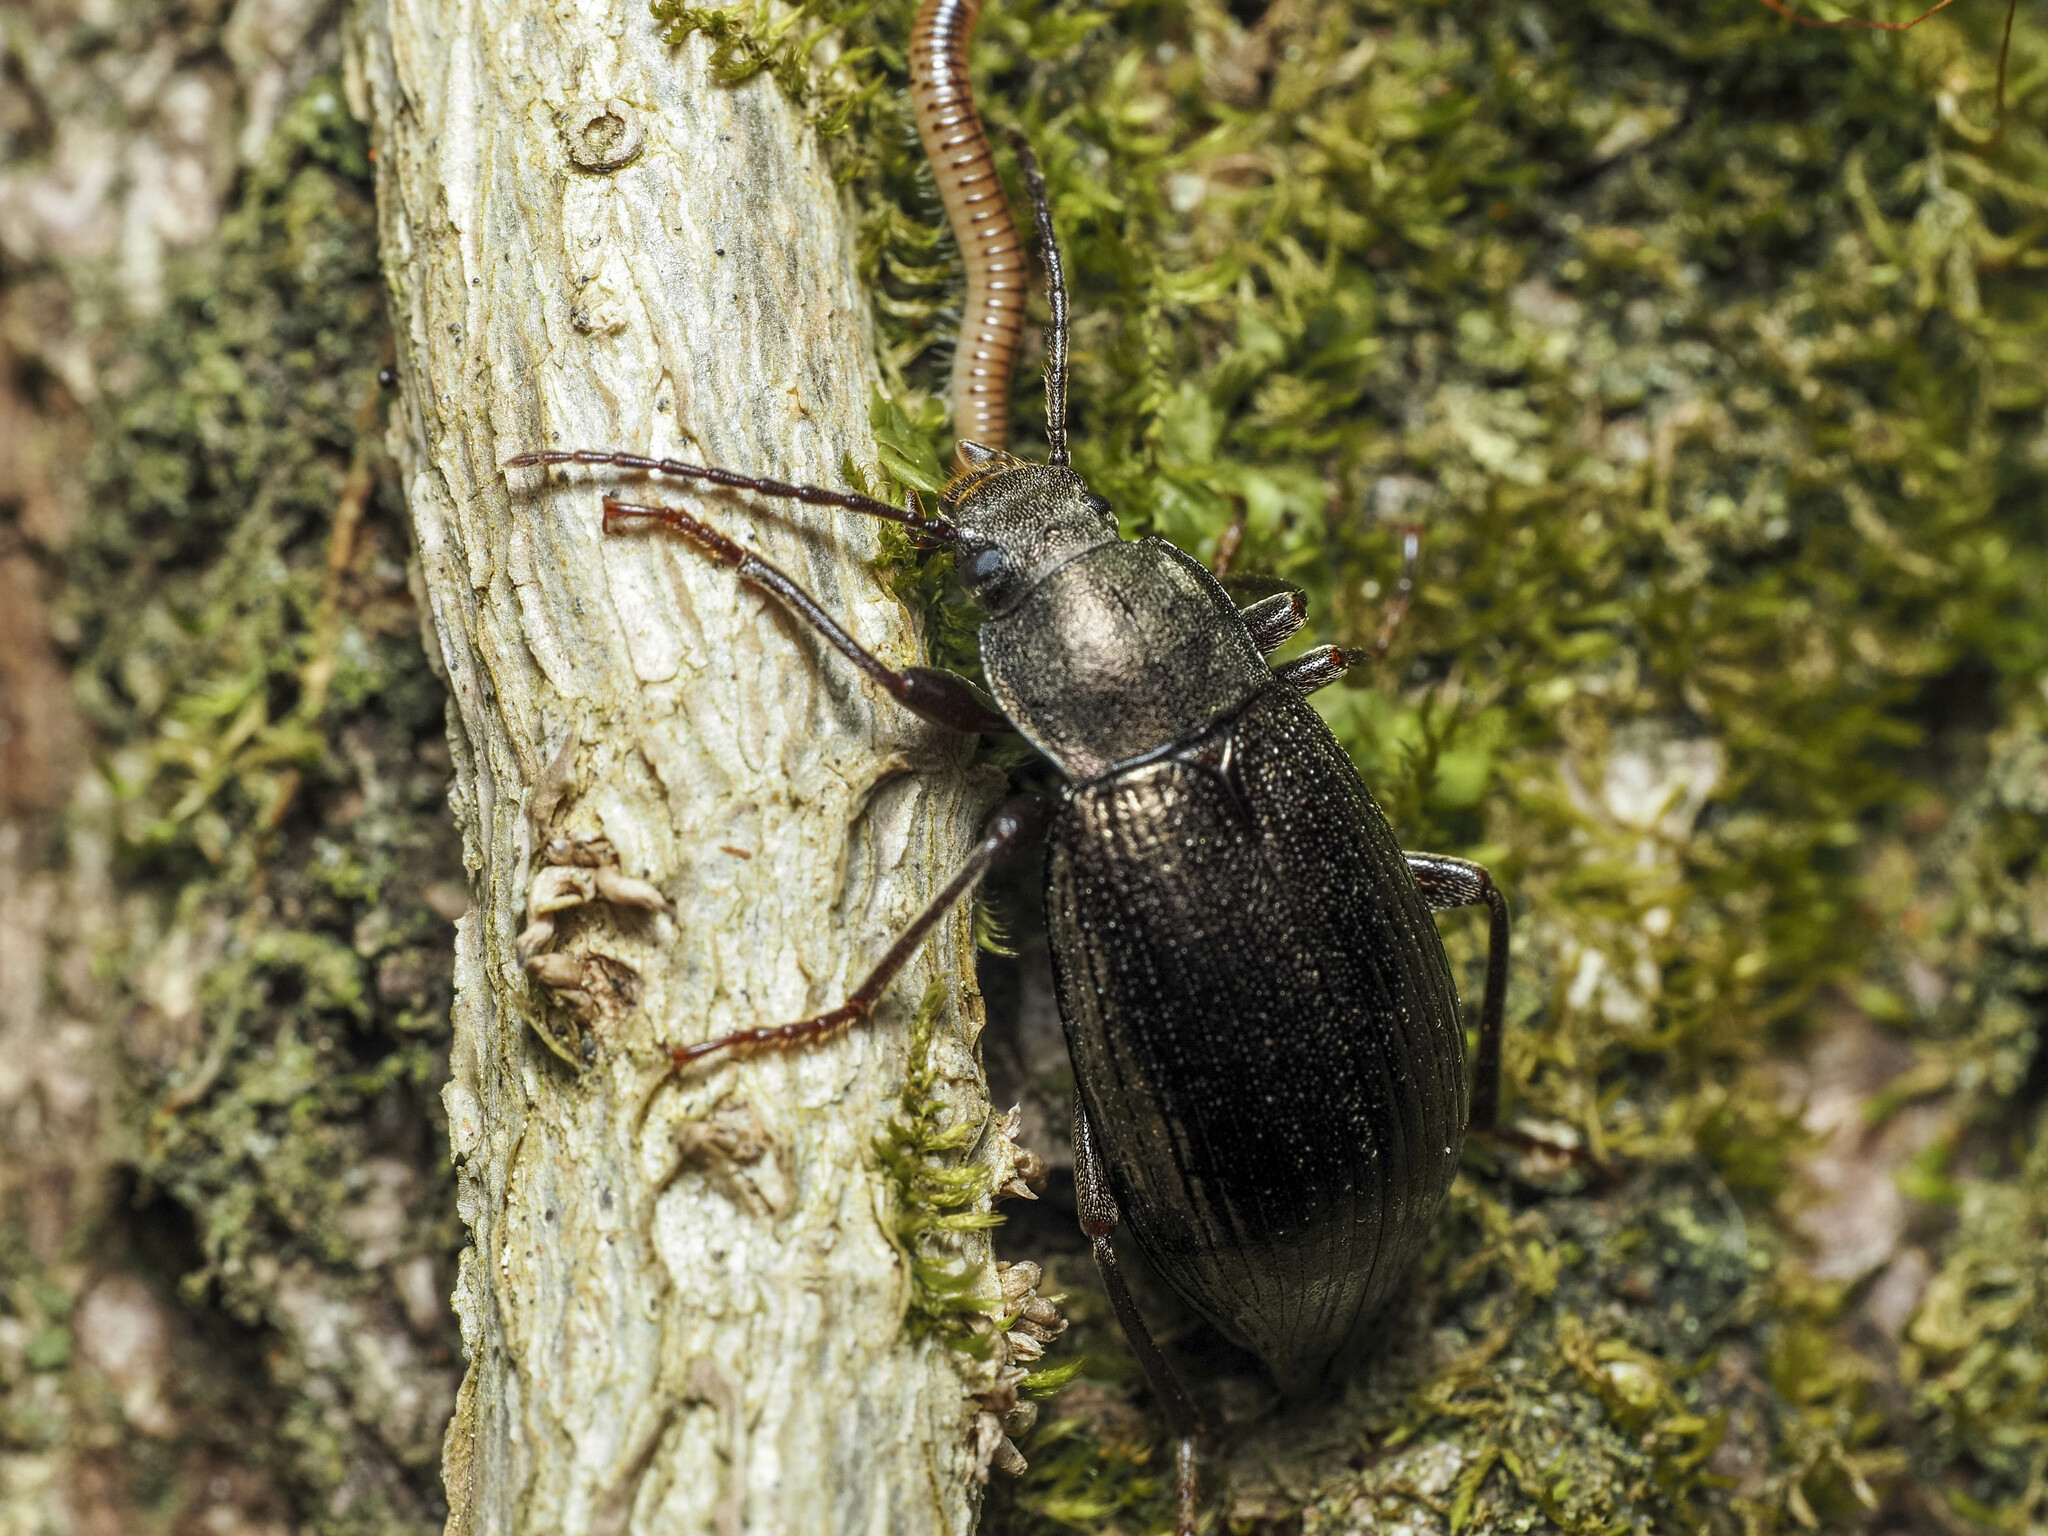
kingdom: Animalia
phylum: Arthropoda
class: Insecta
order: Coleoptera
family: Tenebrionidae
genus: Stenomax
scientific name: Stenomax aeneus
